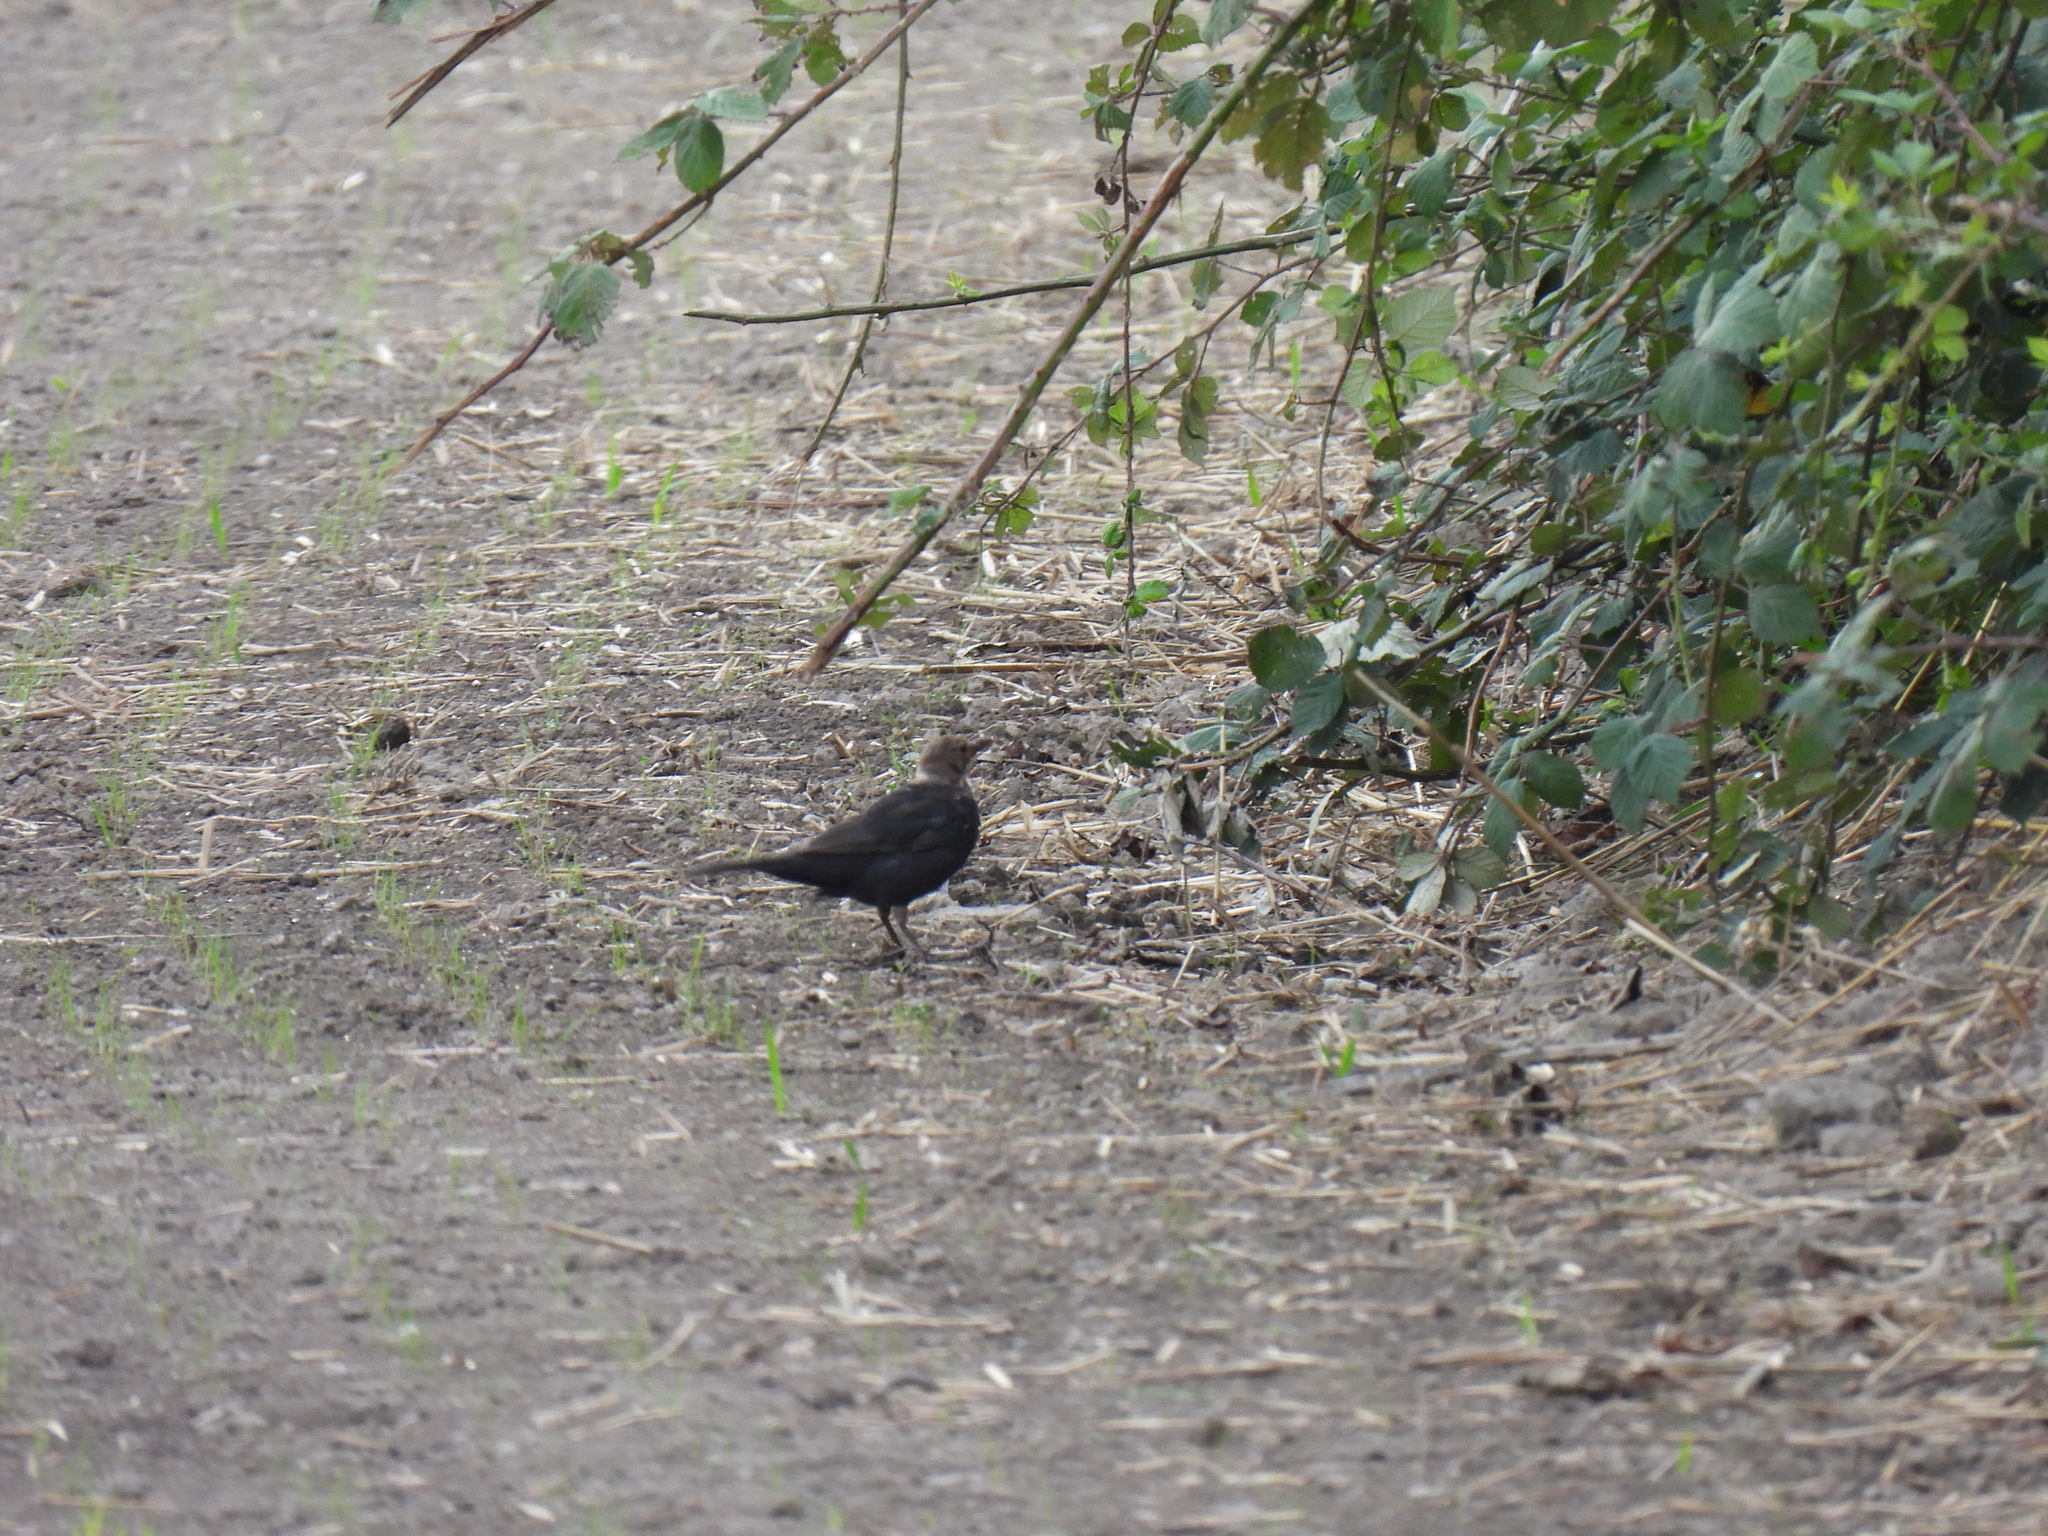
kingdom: Animalia
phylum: Chordata
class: Aves
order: Passeriformes
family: Turdidae
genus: Turdus
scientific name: Turdus merula
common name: Common blackbird
